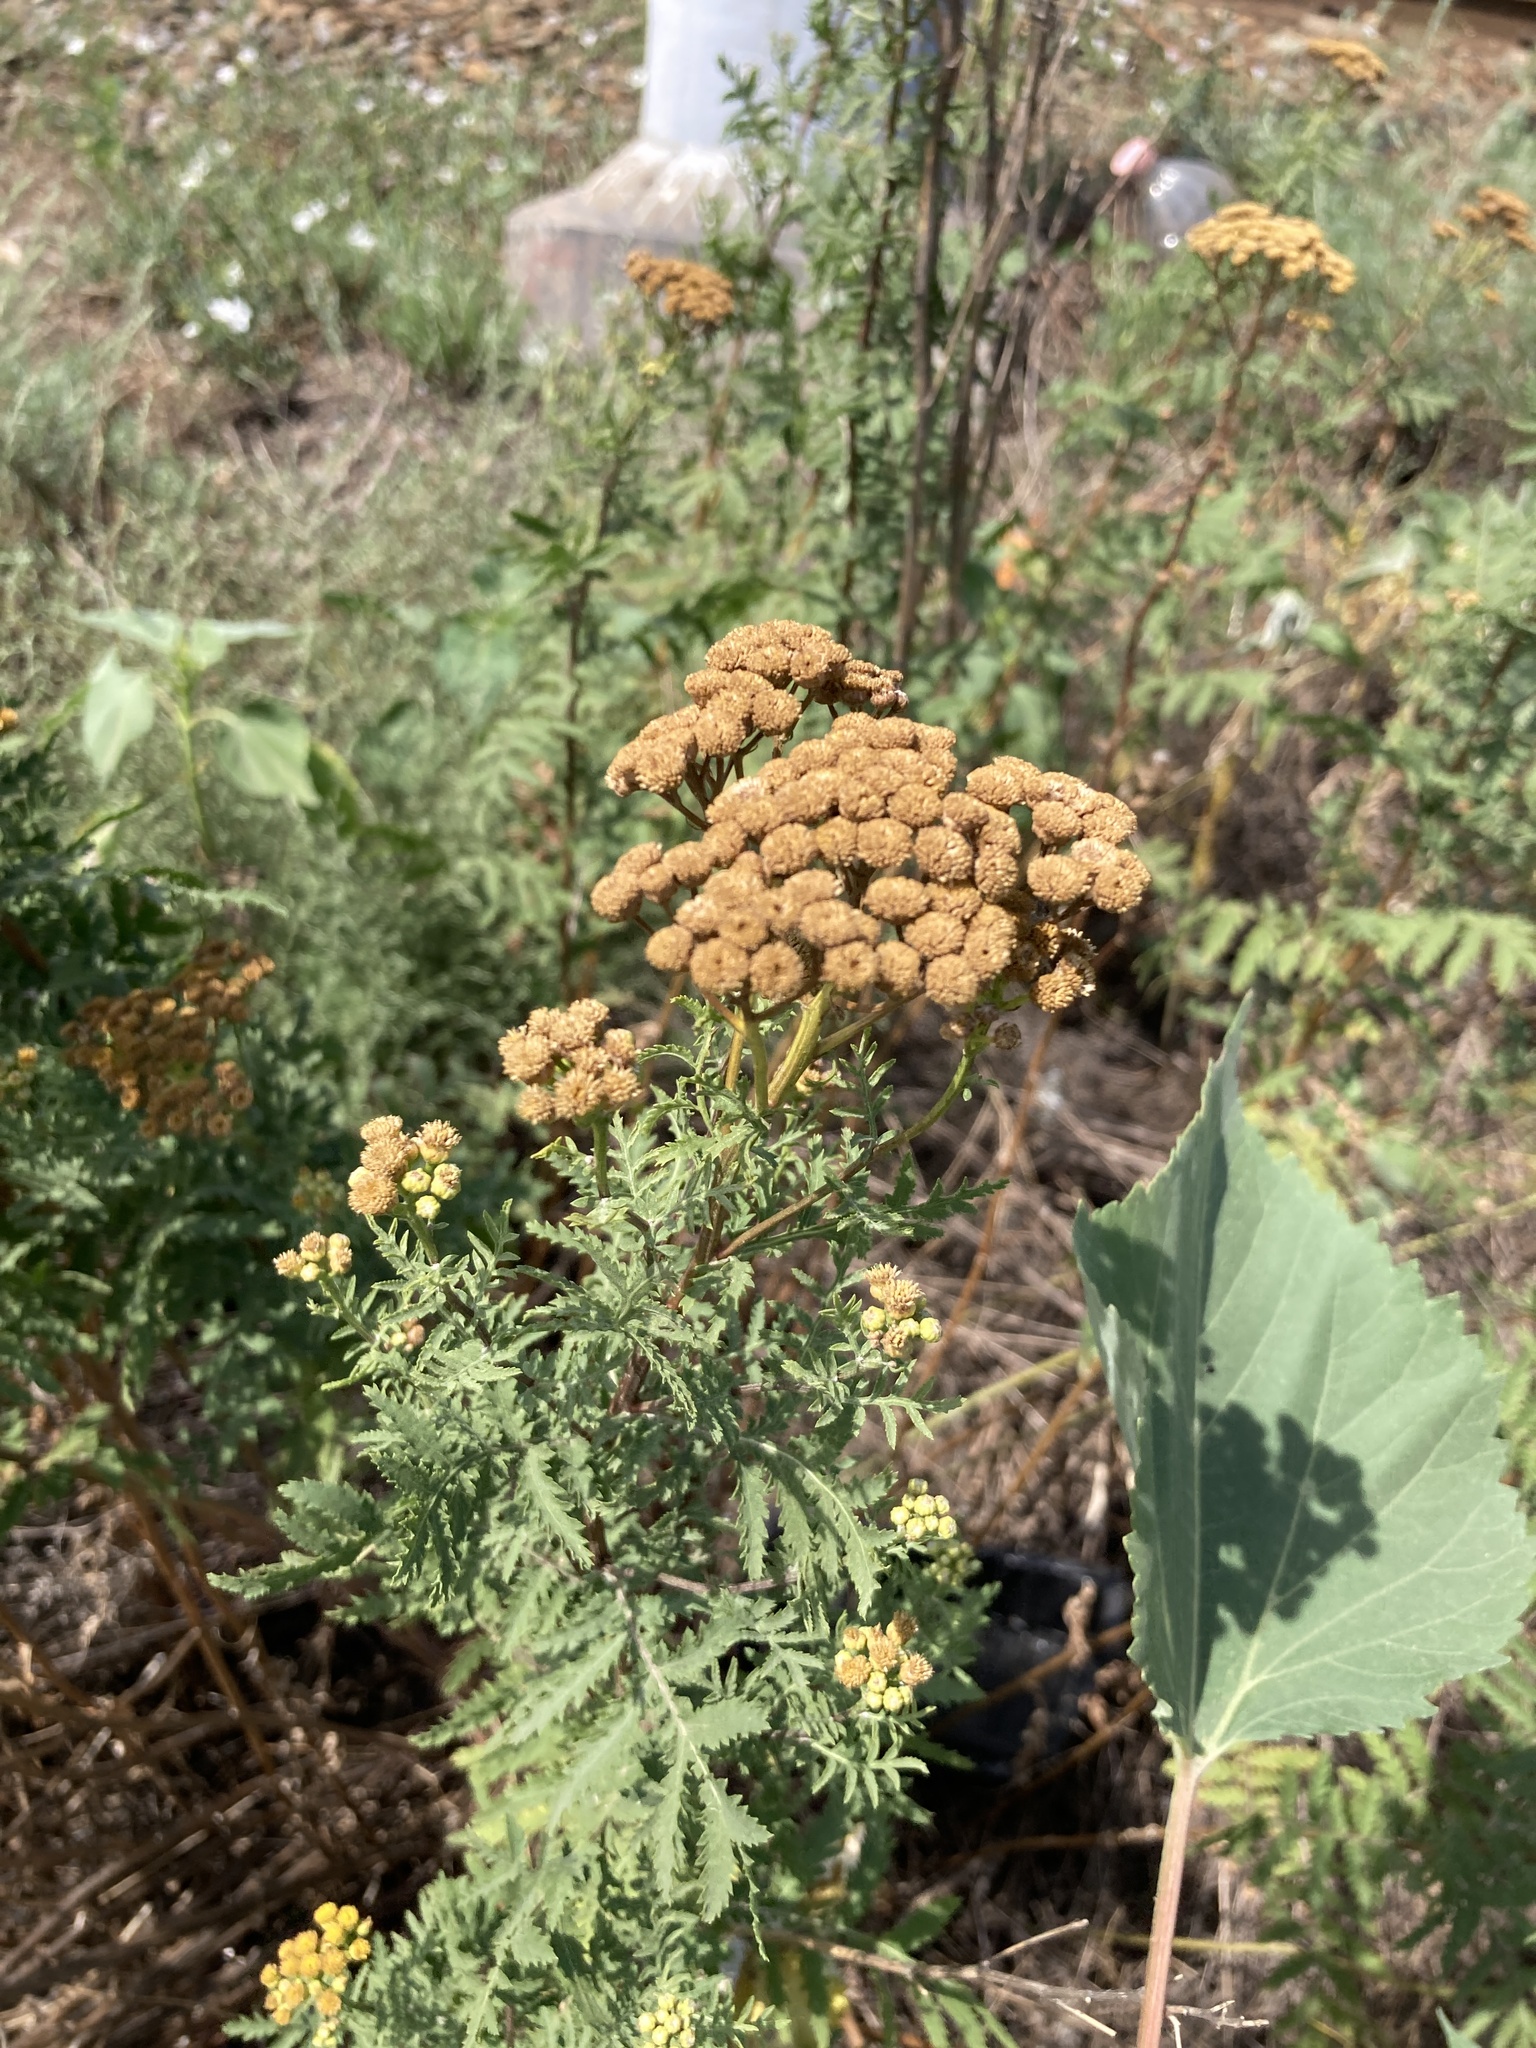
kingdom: Plantae
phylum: Tracheophyta
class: Magnoliopsida
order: Asterales
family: Asteraceae
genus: Tanacetum
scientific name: Tanacetum vulgare
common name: Common tansy
